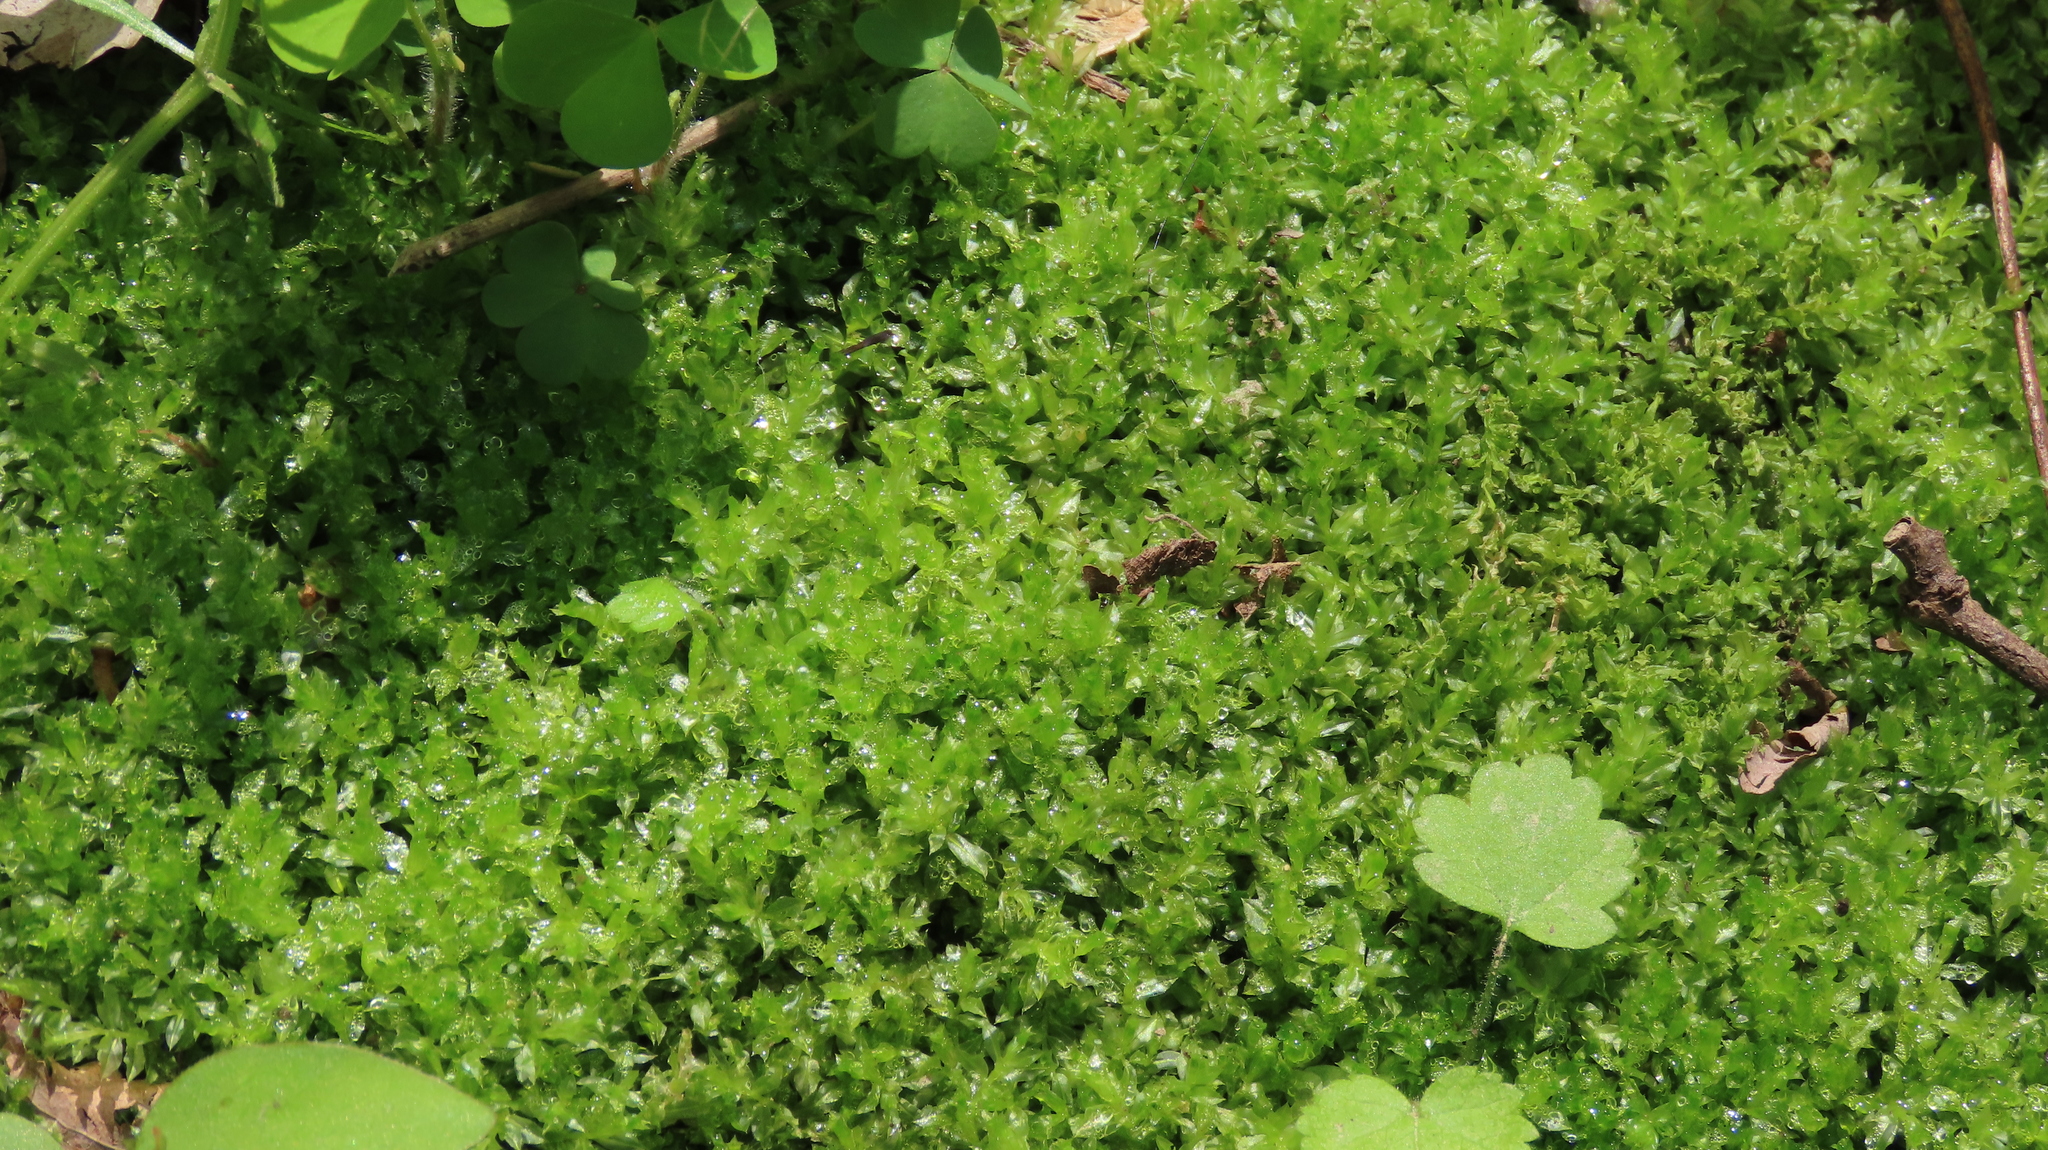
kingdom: Plantae
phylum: Bryophyta
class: Bryopsida
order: Bryales
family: Mniaceae
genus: Plagiomnium
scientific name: Plagiomnium cuspidatum
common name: Woodsy leafy moss
